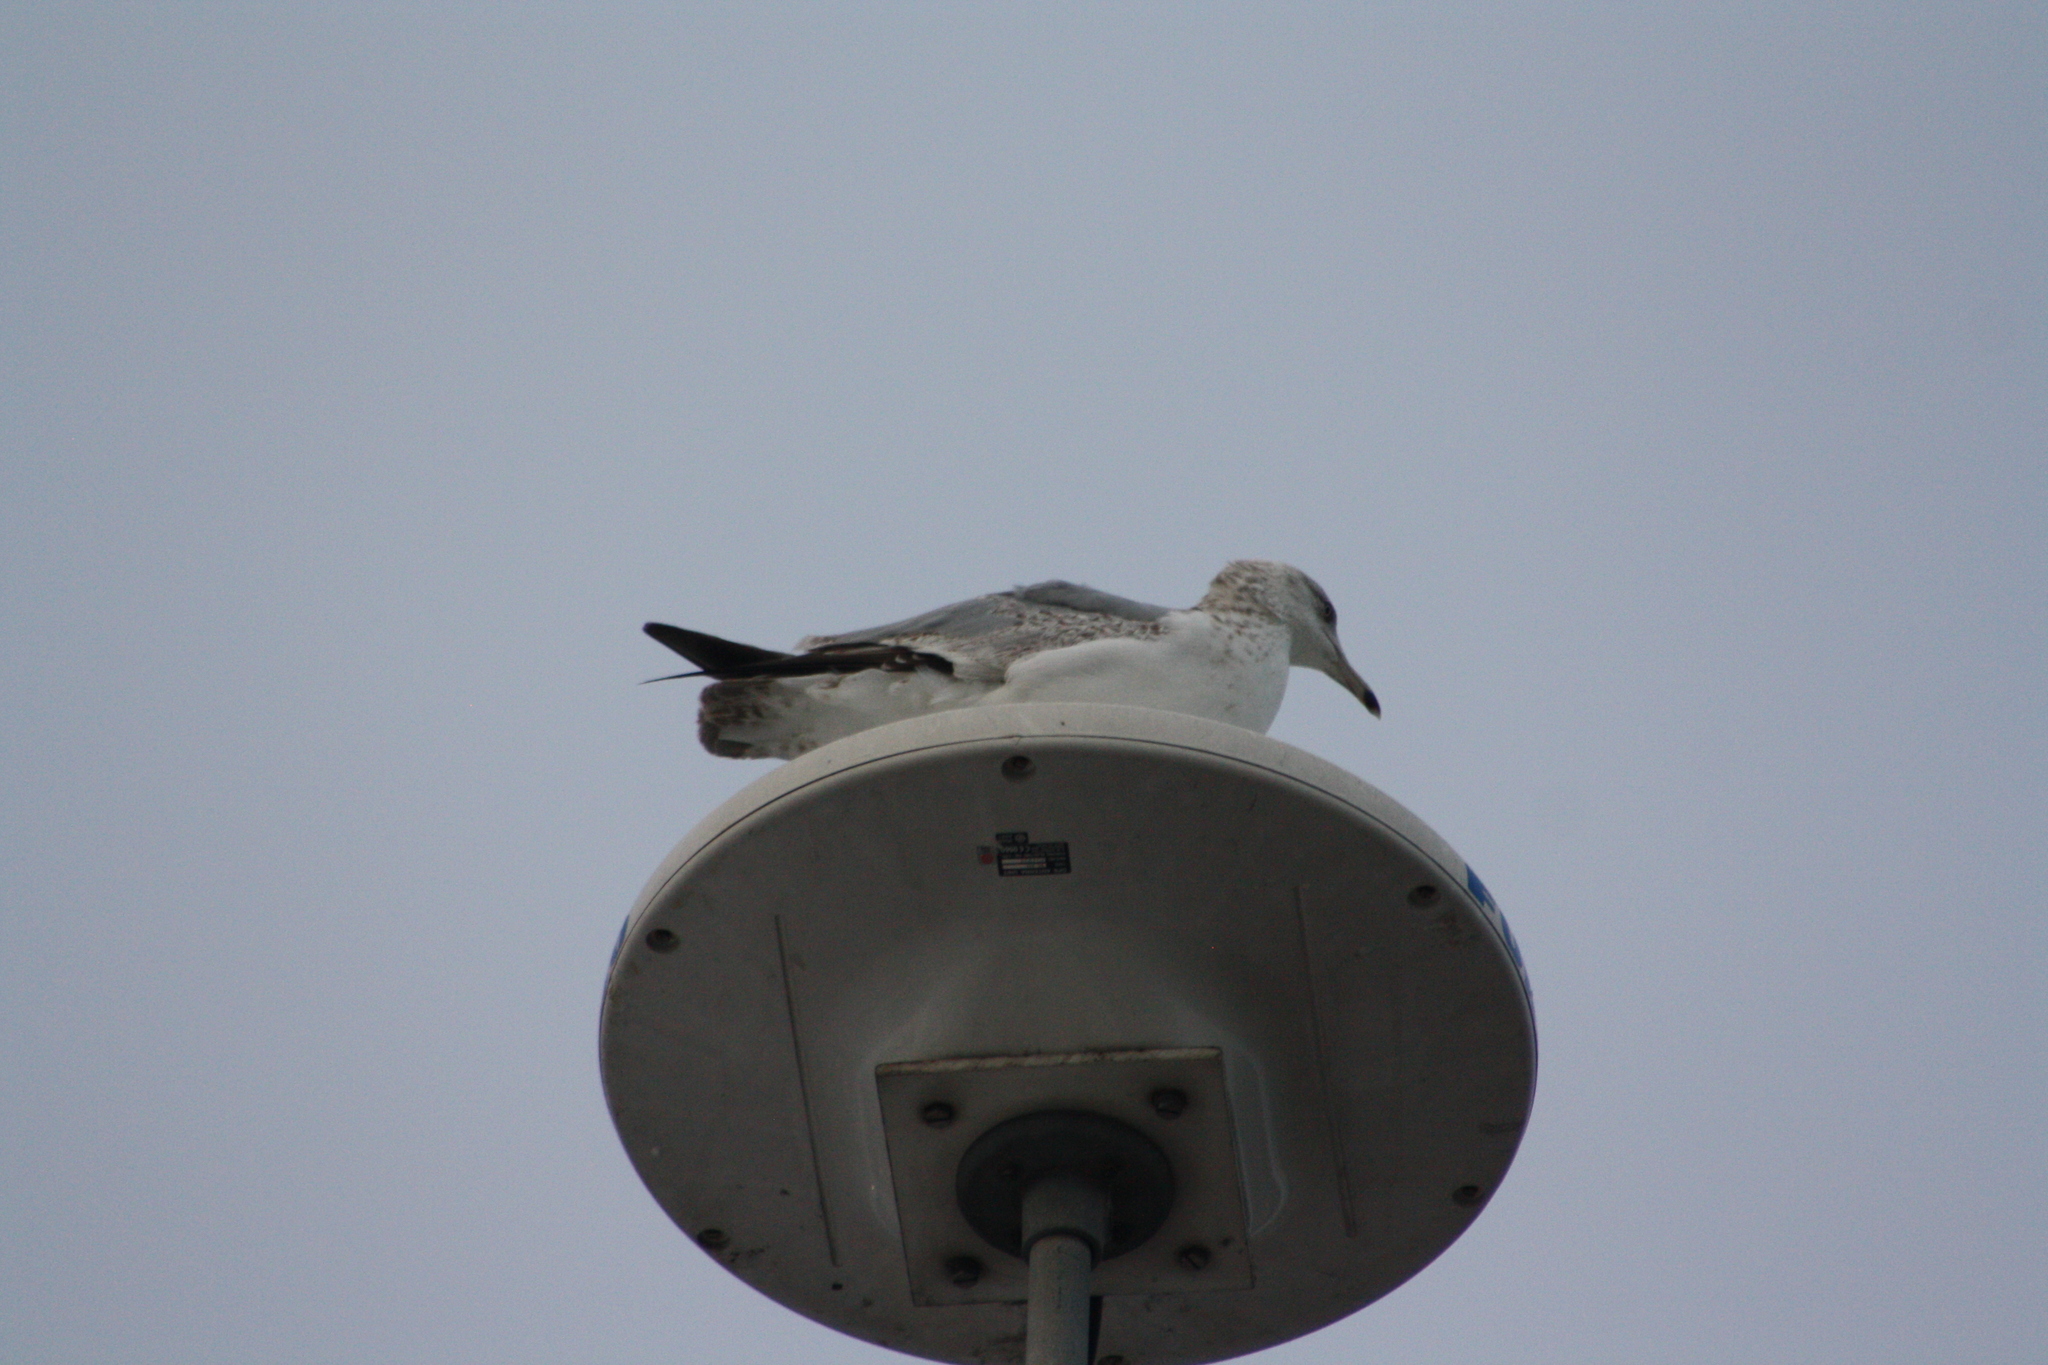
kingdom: Animalia
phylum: Chordata
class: Aves
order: Charadriiformes
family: Laridae
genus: Larus
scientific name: Larus delawarensis
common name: Ring-billed gull
